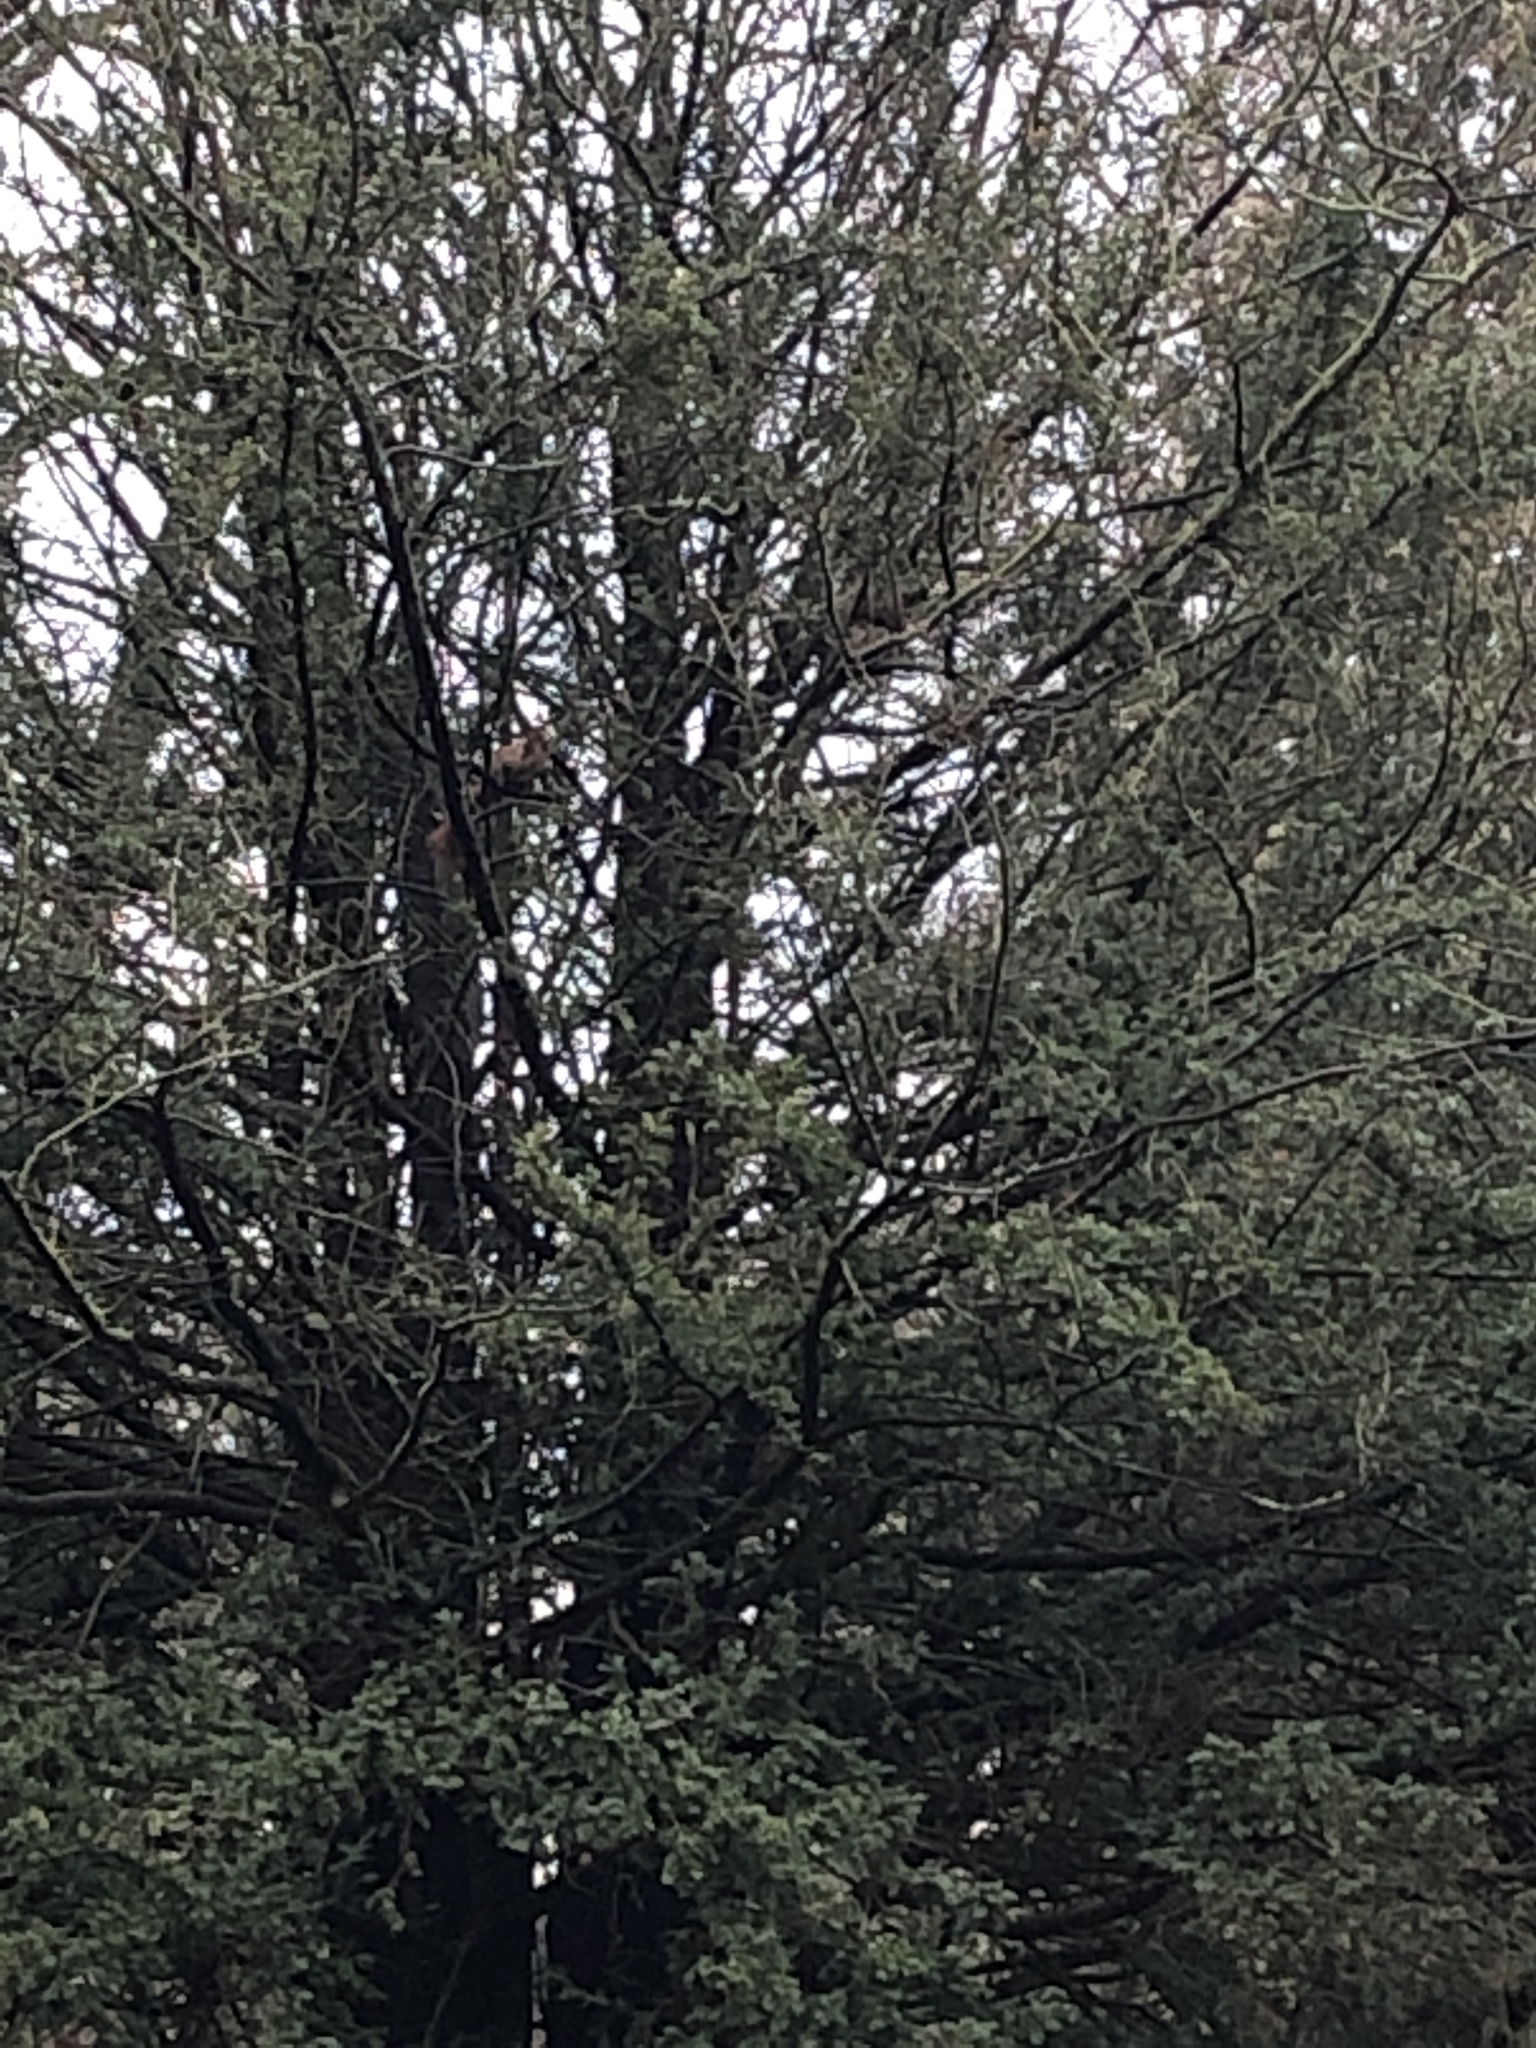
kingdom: Animalia
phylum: Chordata
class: Mammalia
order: Rodentia
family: Sciuridae
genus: Sciurus
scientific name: Sciurus vulgaris
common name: Eurasian red squirrel
